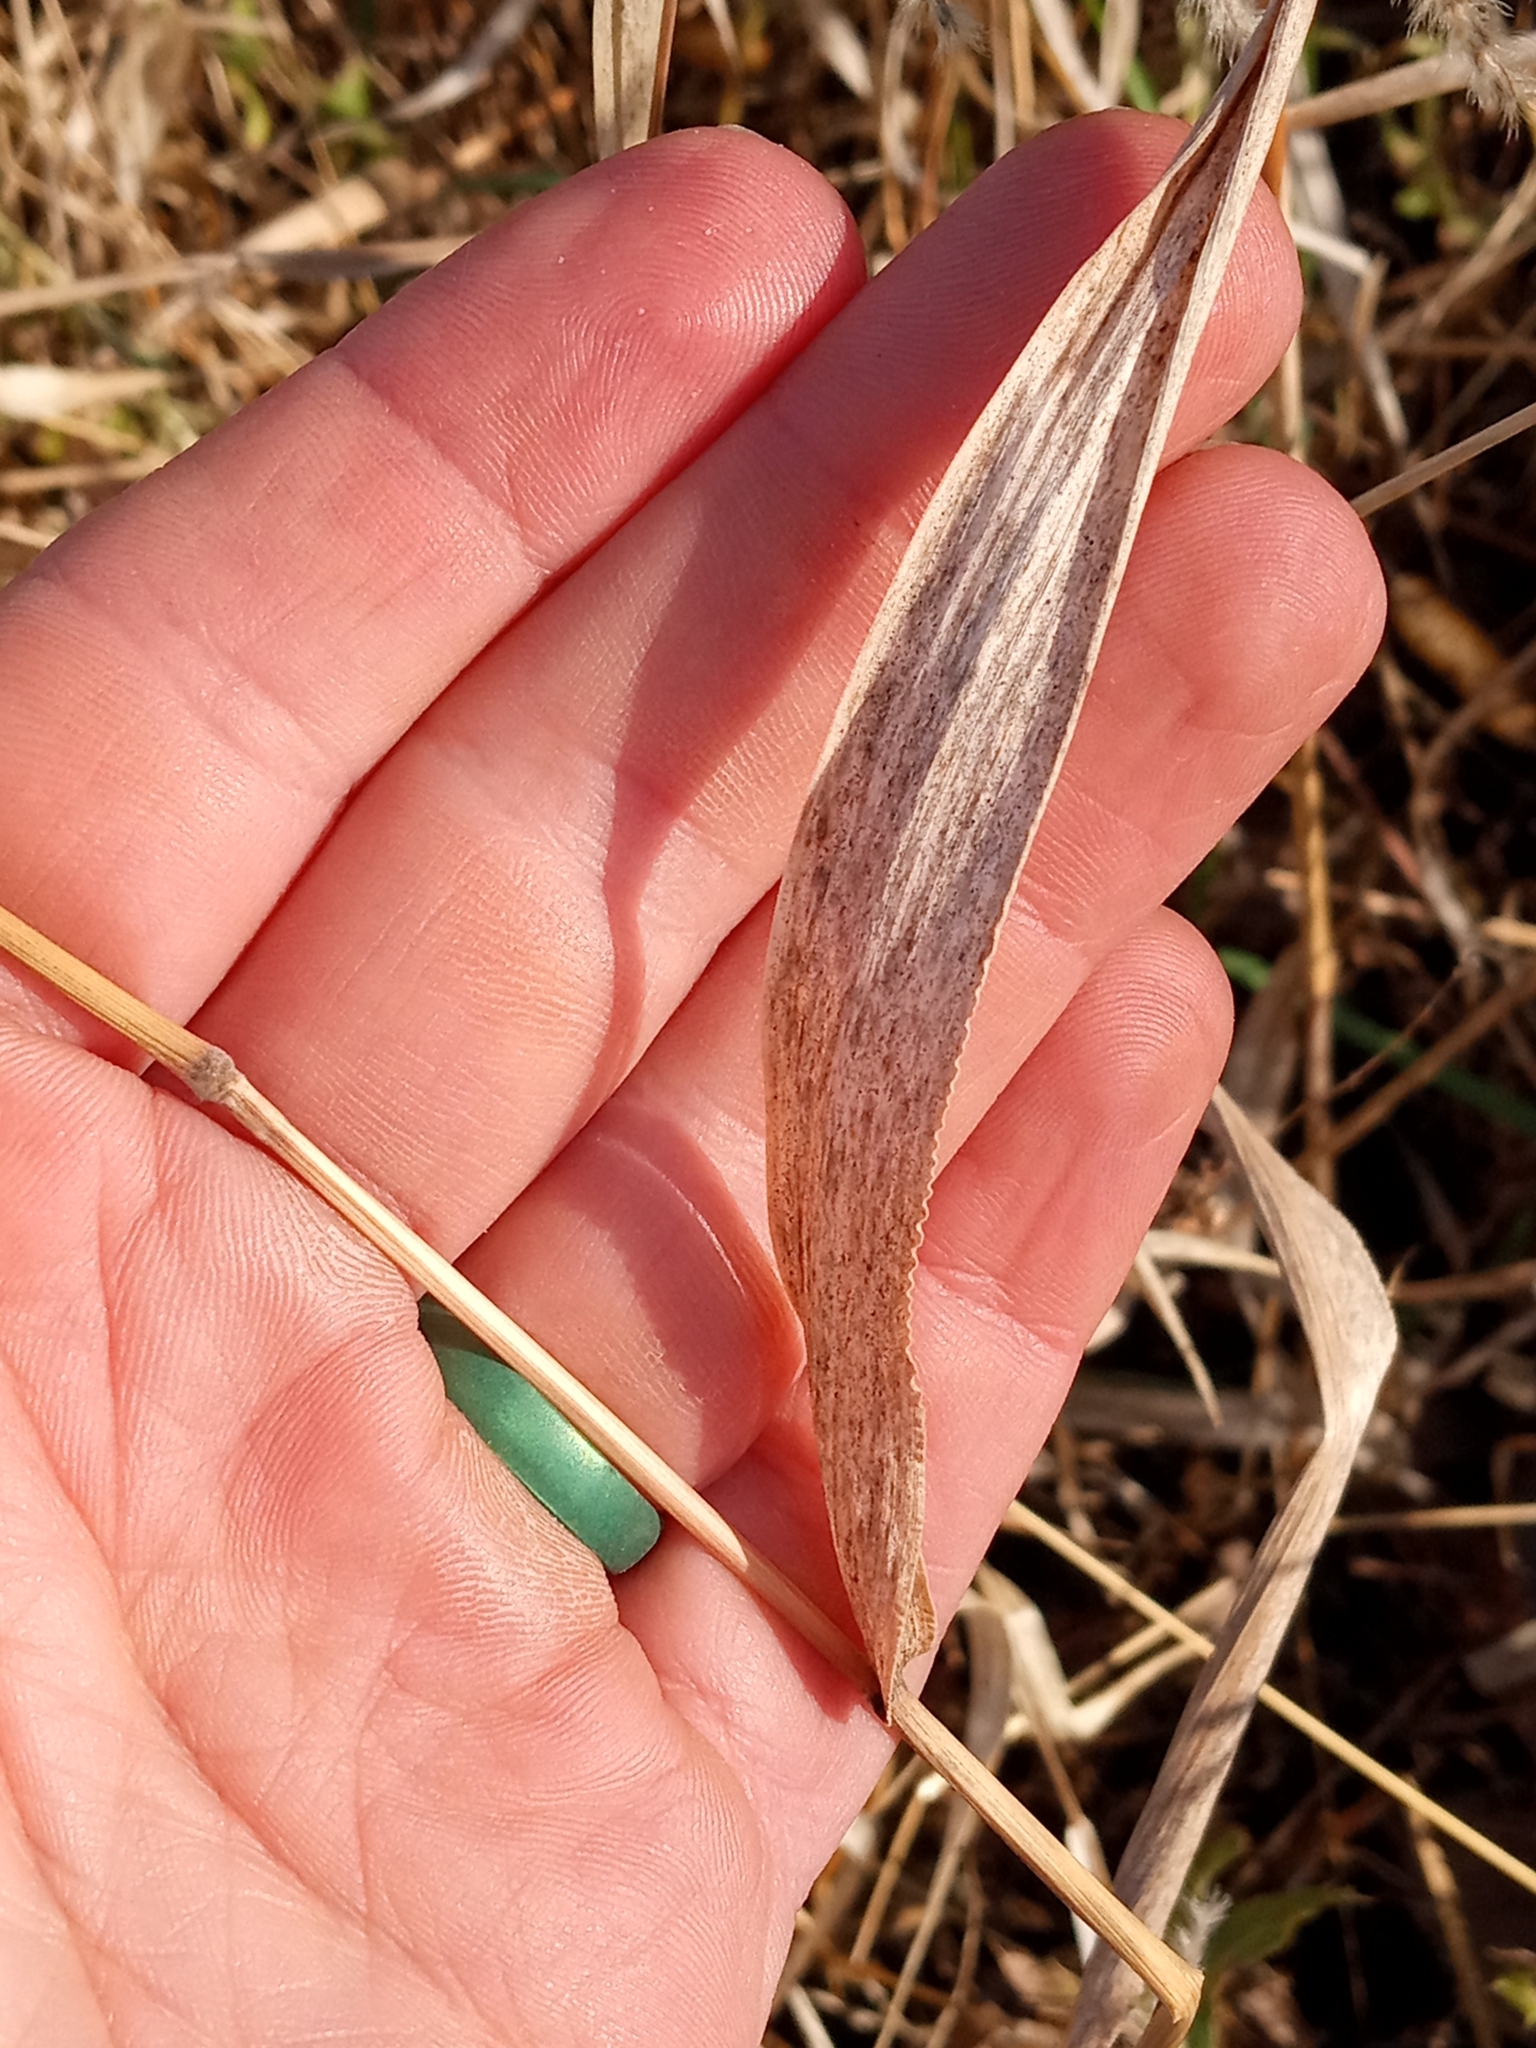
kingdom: Plantae
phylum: Tracheophyta
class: Liliopsida
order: Poales
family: Poaceae
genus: Eriochloa
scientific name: Eriochloa villosa
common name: Hairy cupgrass
